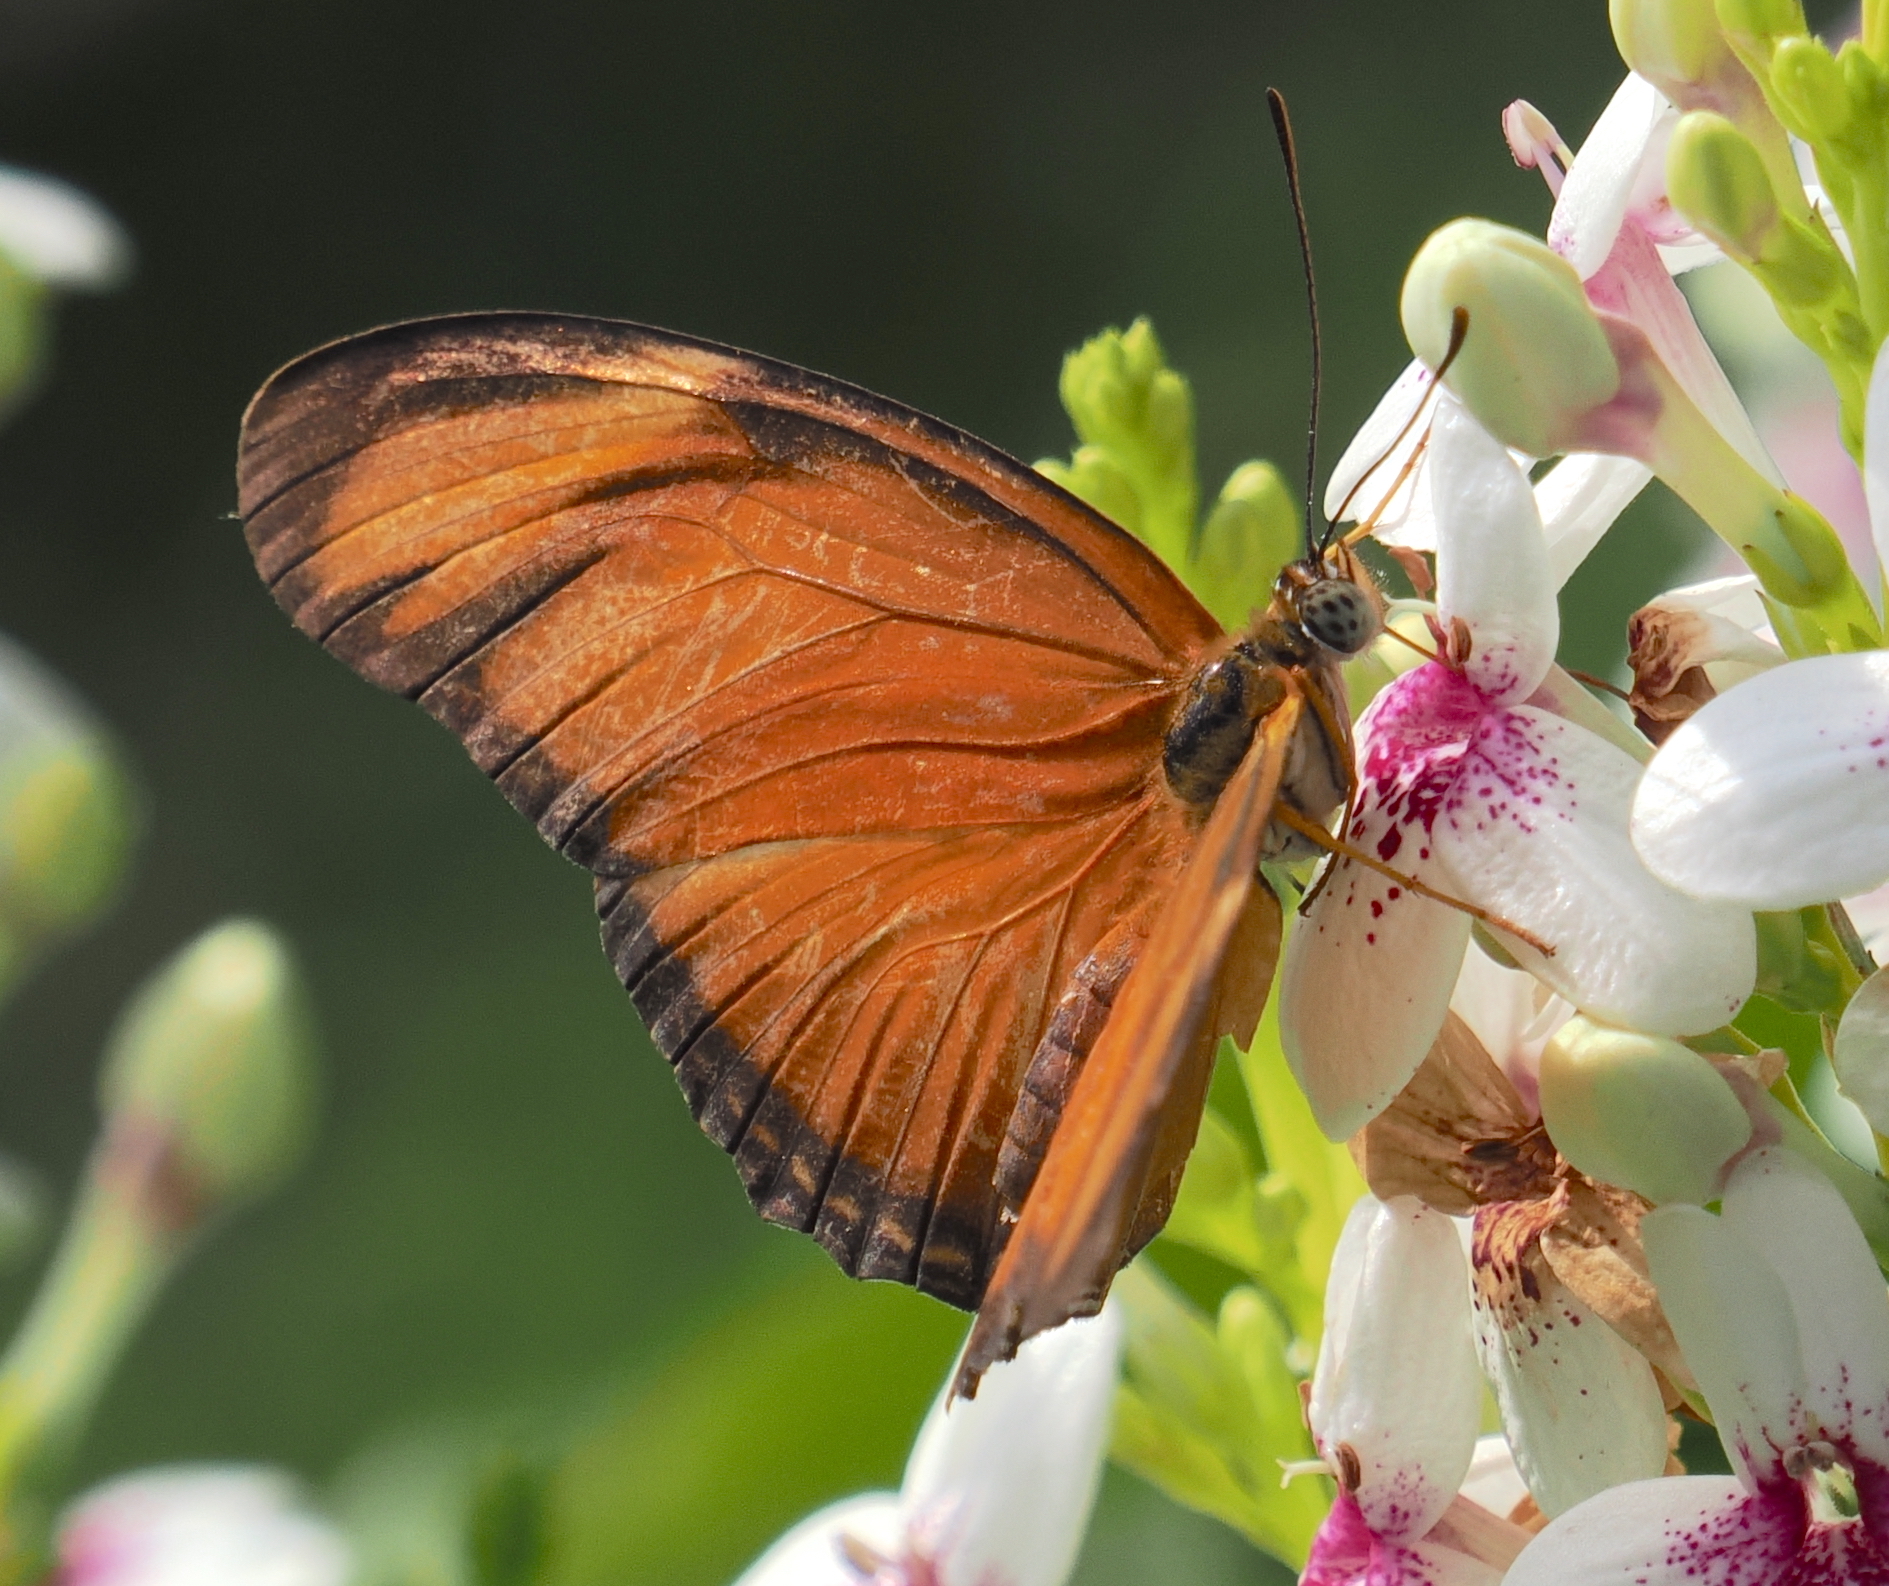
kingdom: Animalia
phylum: Arthropoda
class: Insecta
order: Lepidoptera
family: Nymphalidae
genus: Dryas
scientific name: Dryas iulia
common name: Flambeau
